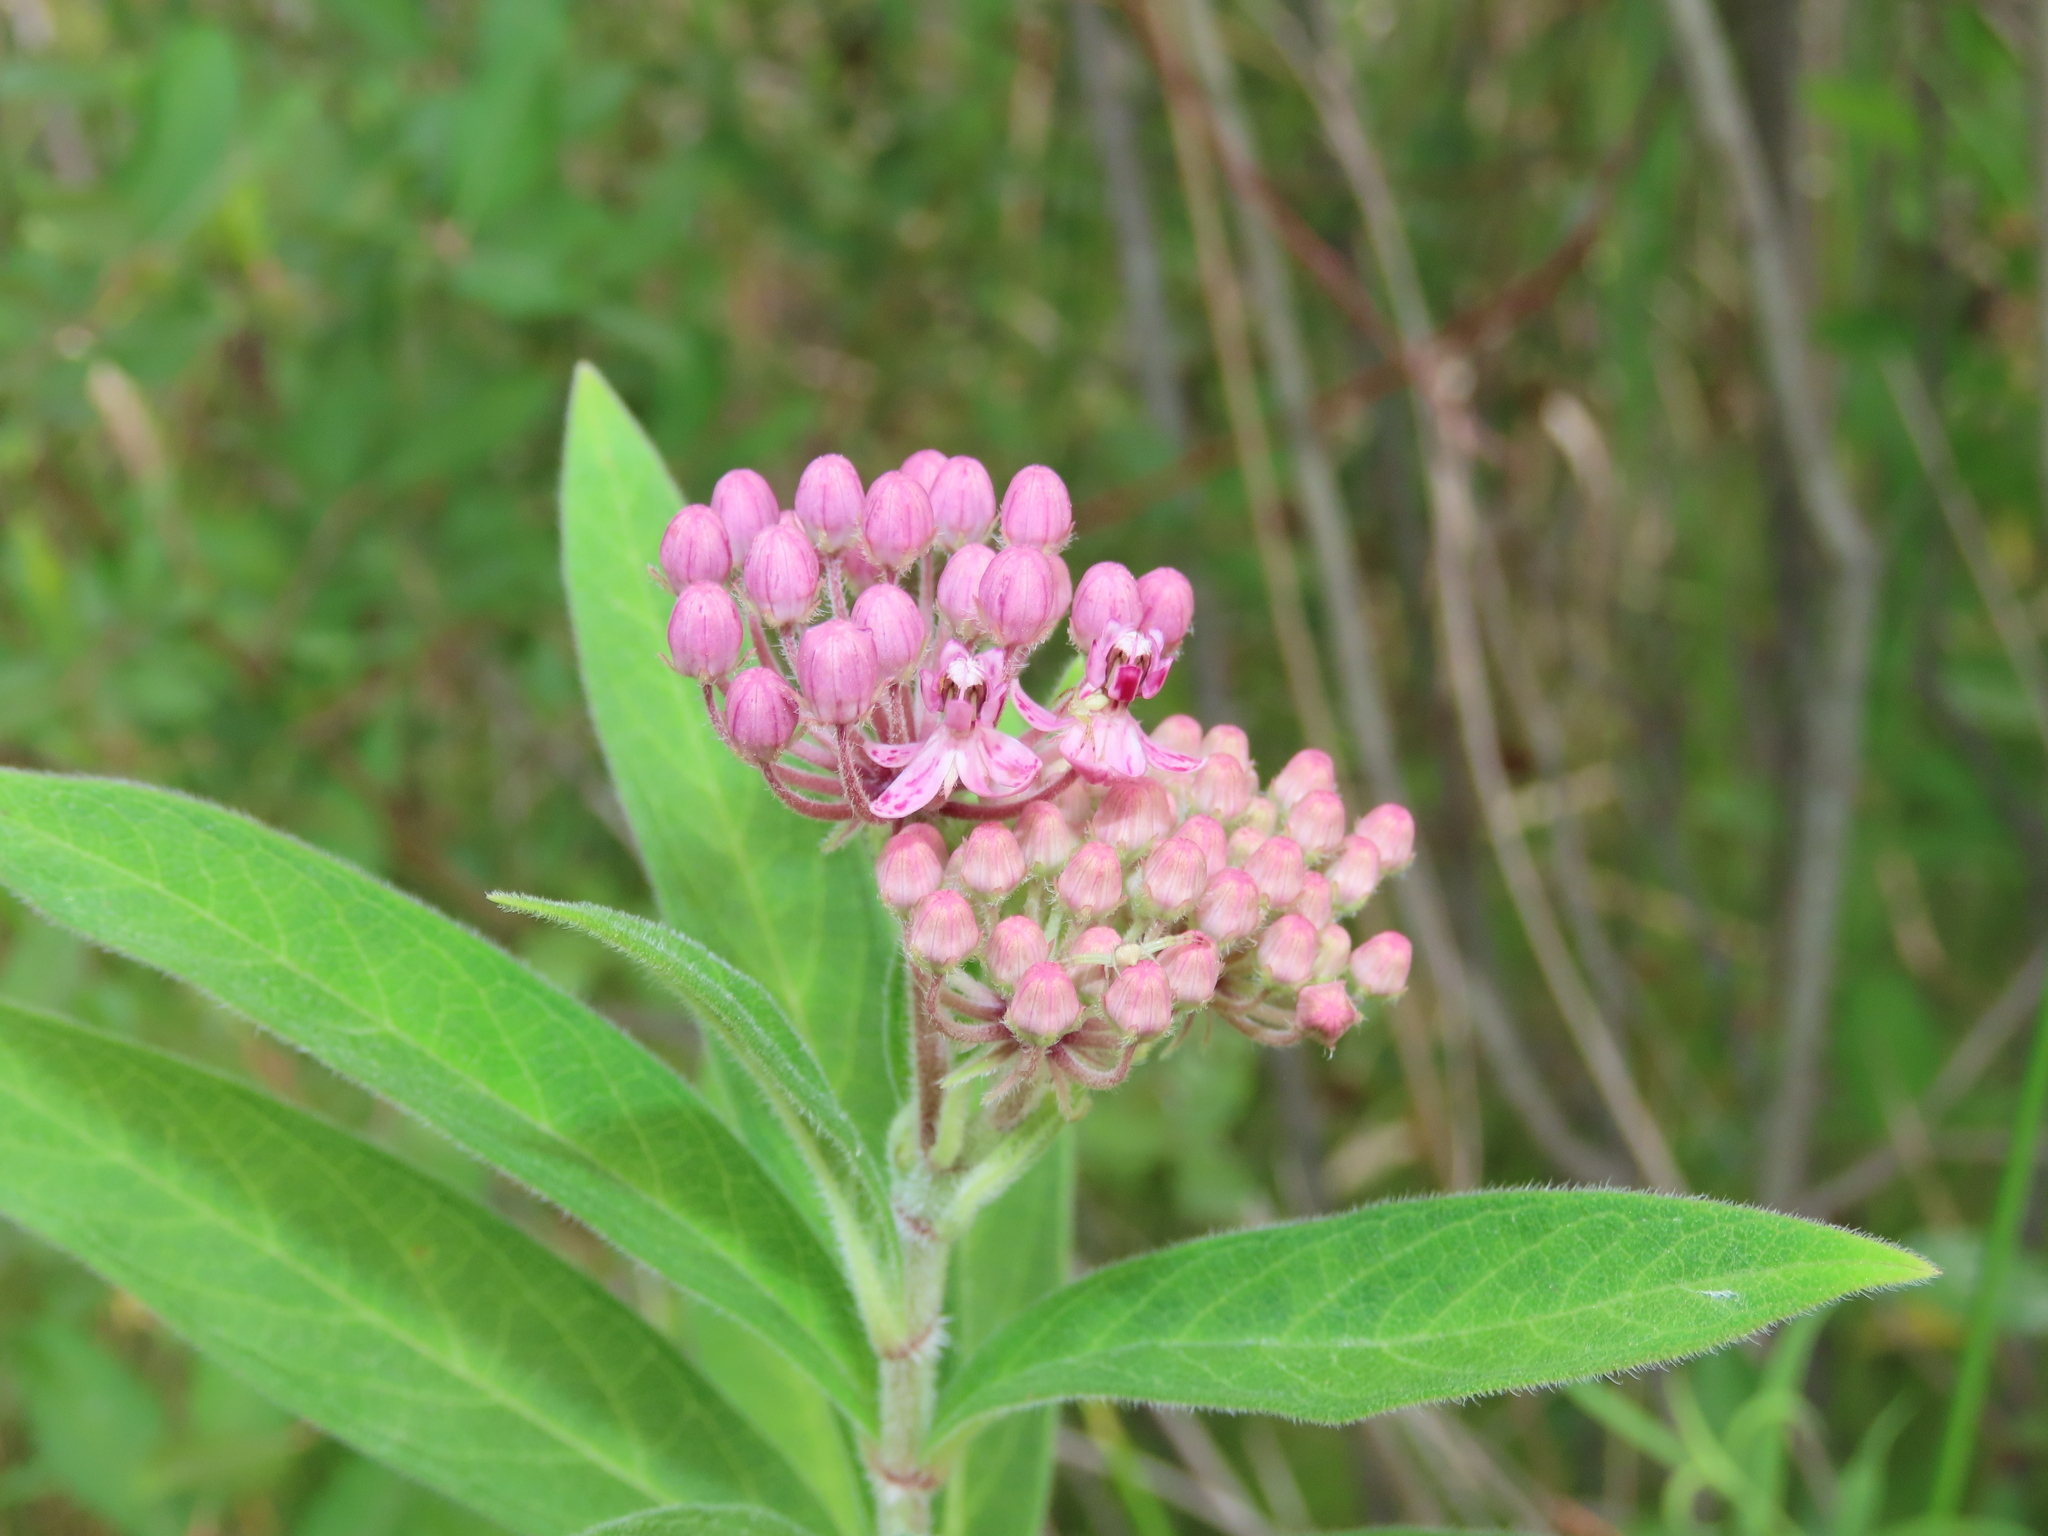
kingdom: Plantae
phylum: Tracheophyta
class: Magnoliopsida
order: Gentianales
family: Apocynaceae
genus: Asclepias
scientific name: Asclepias incarnata
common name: Swamp milkweed
